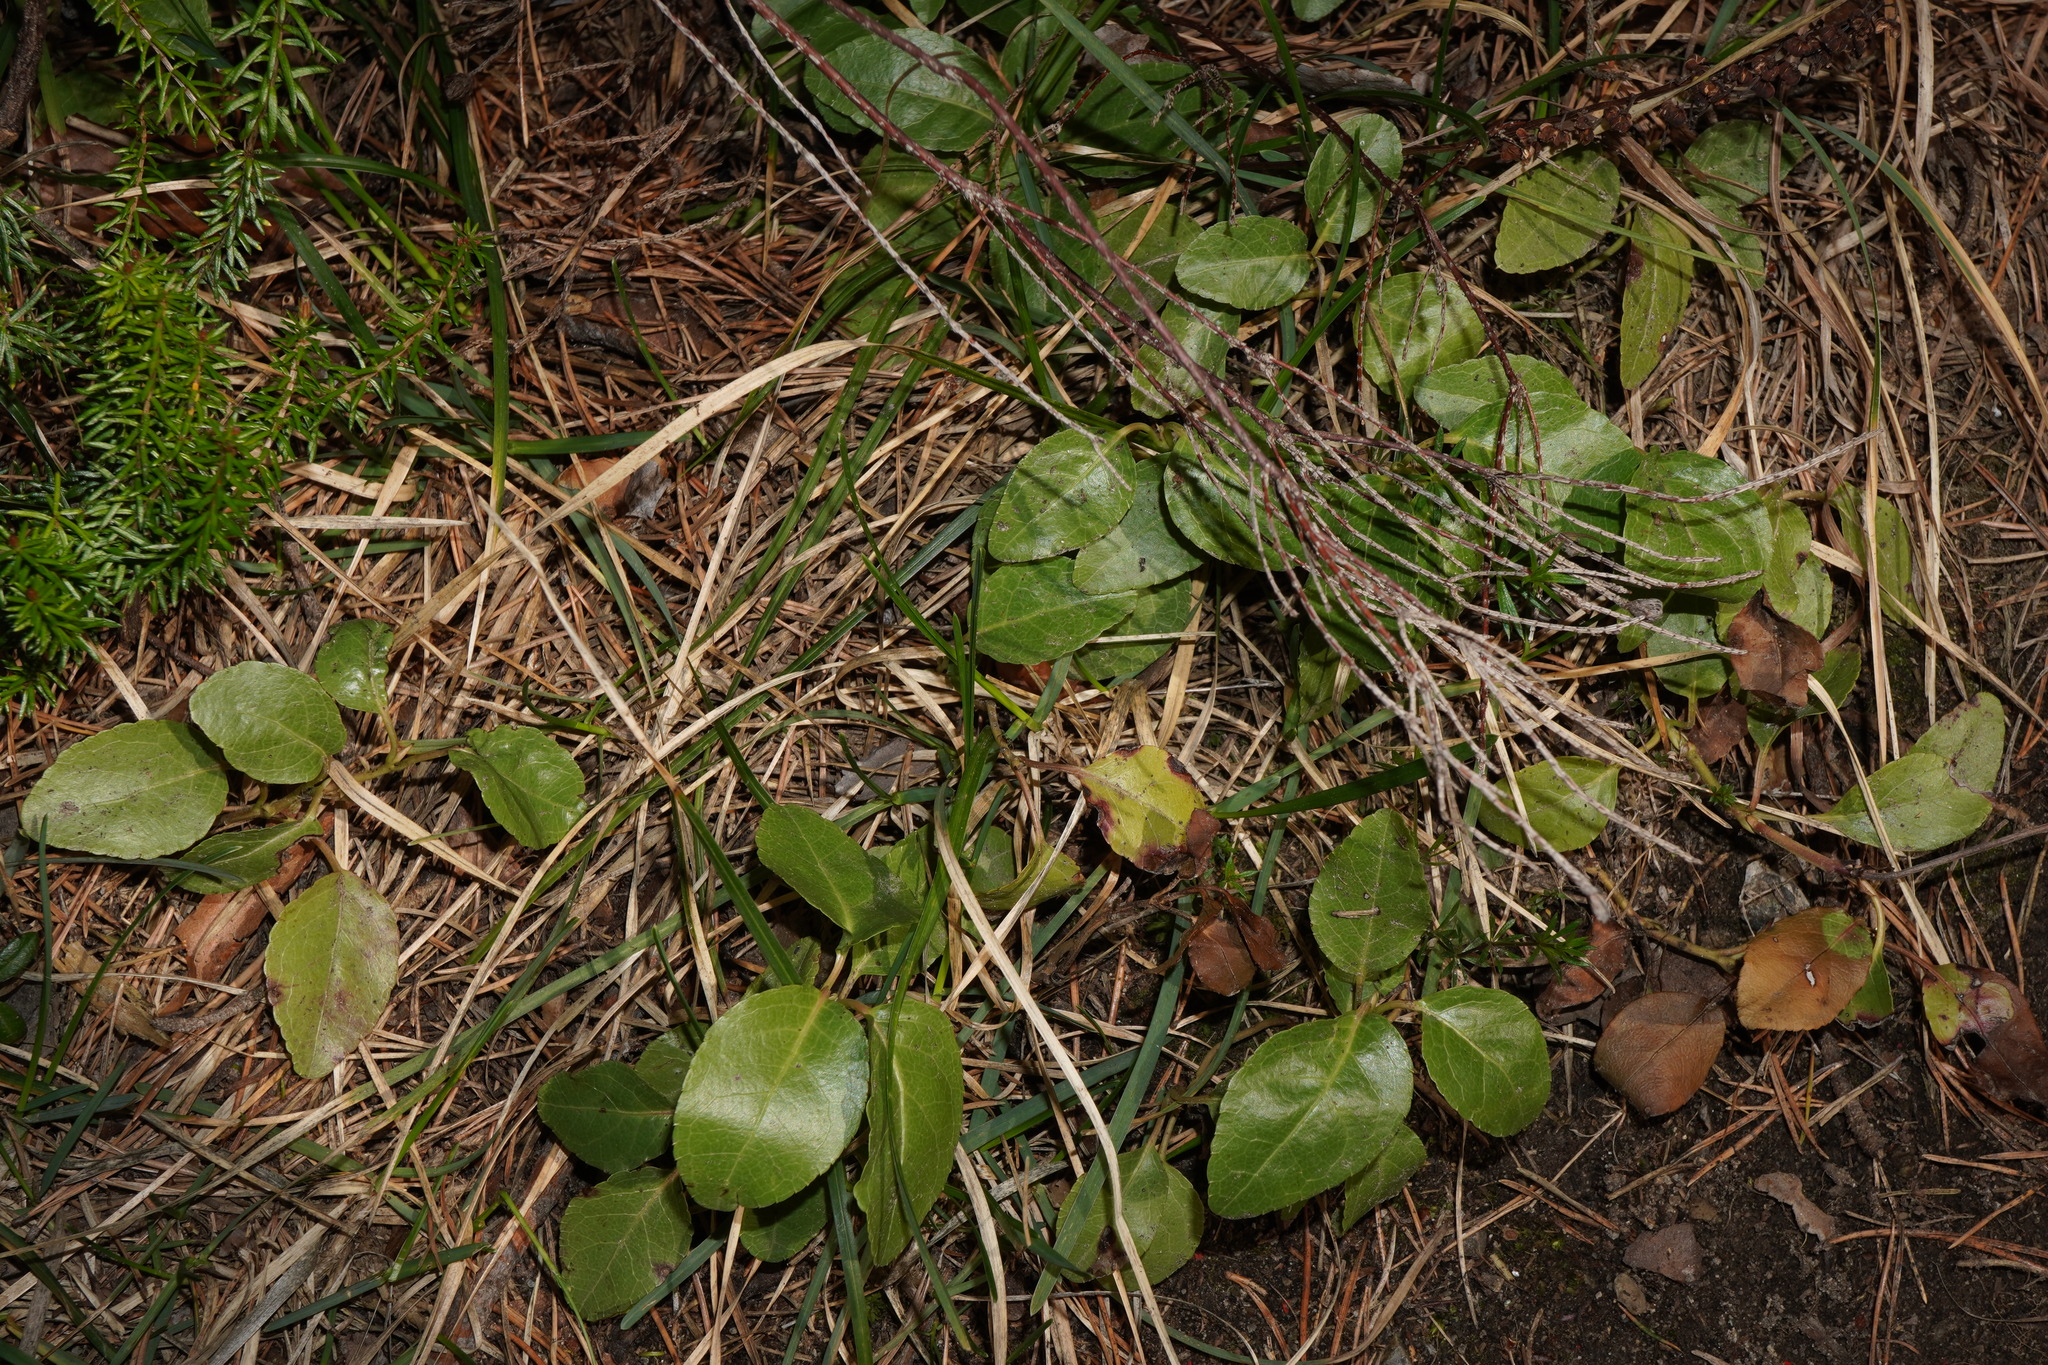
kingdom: Plantae
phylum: Tracheophyta
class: Magnoliopsida
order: Ericales
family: Ericaceae
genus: Orthilia
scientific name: Orthilia secunda
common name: One-sided orthilia
